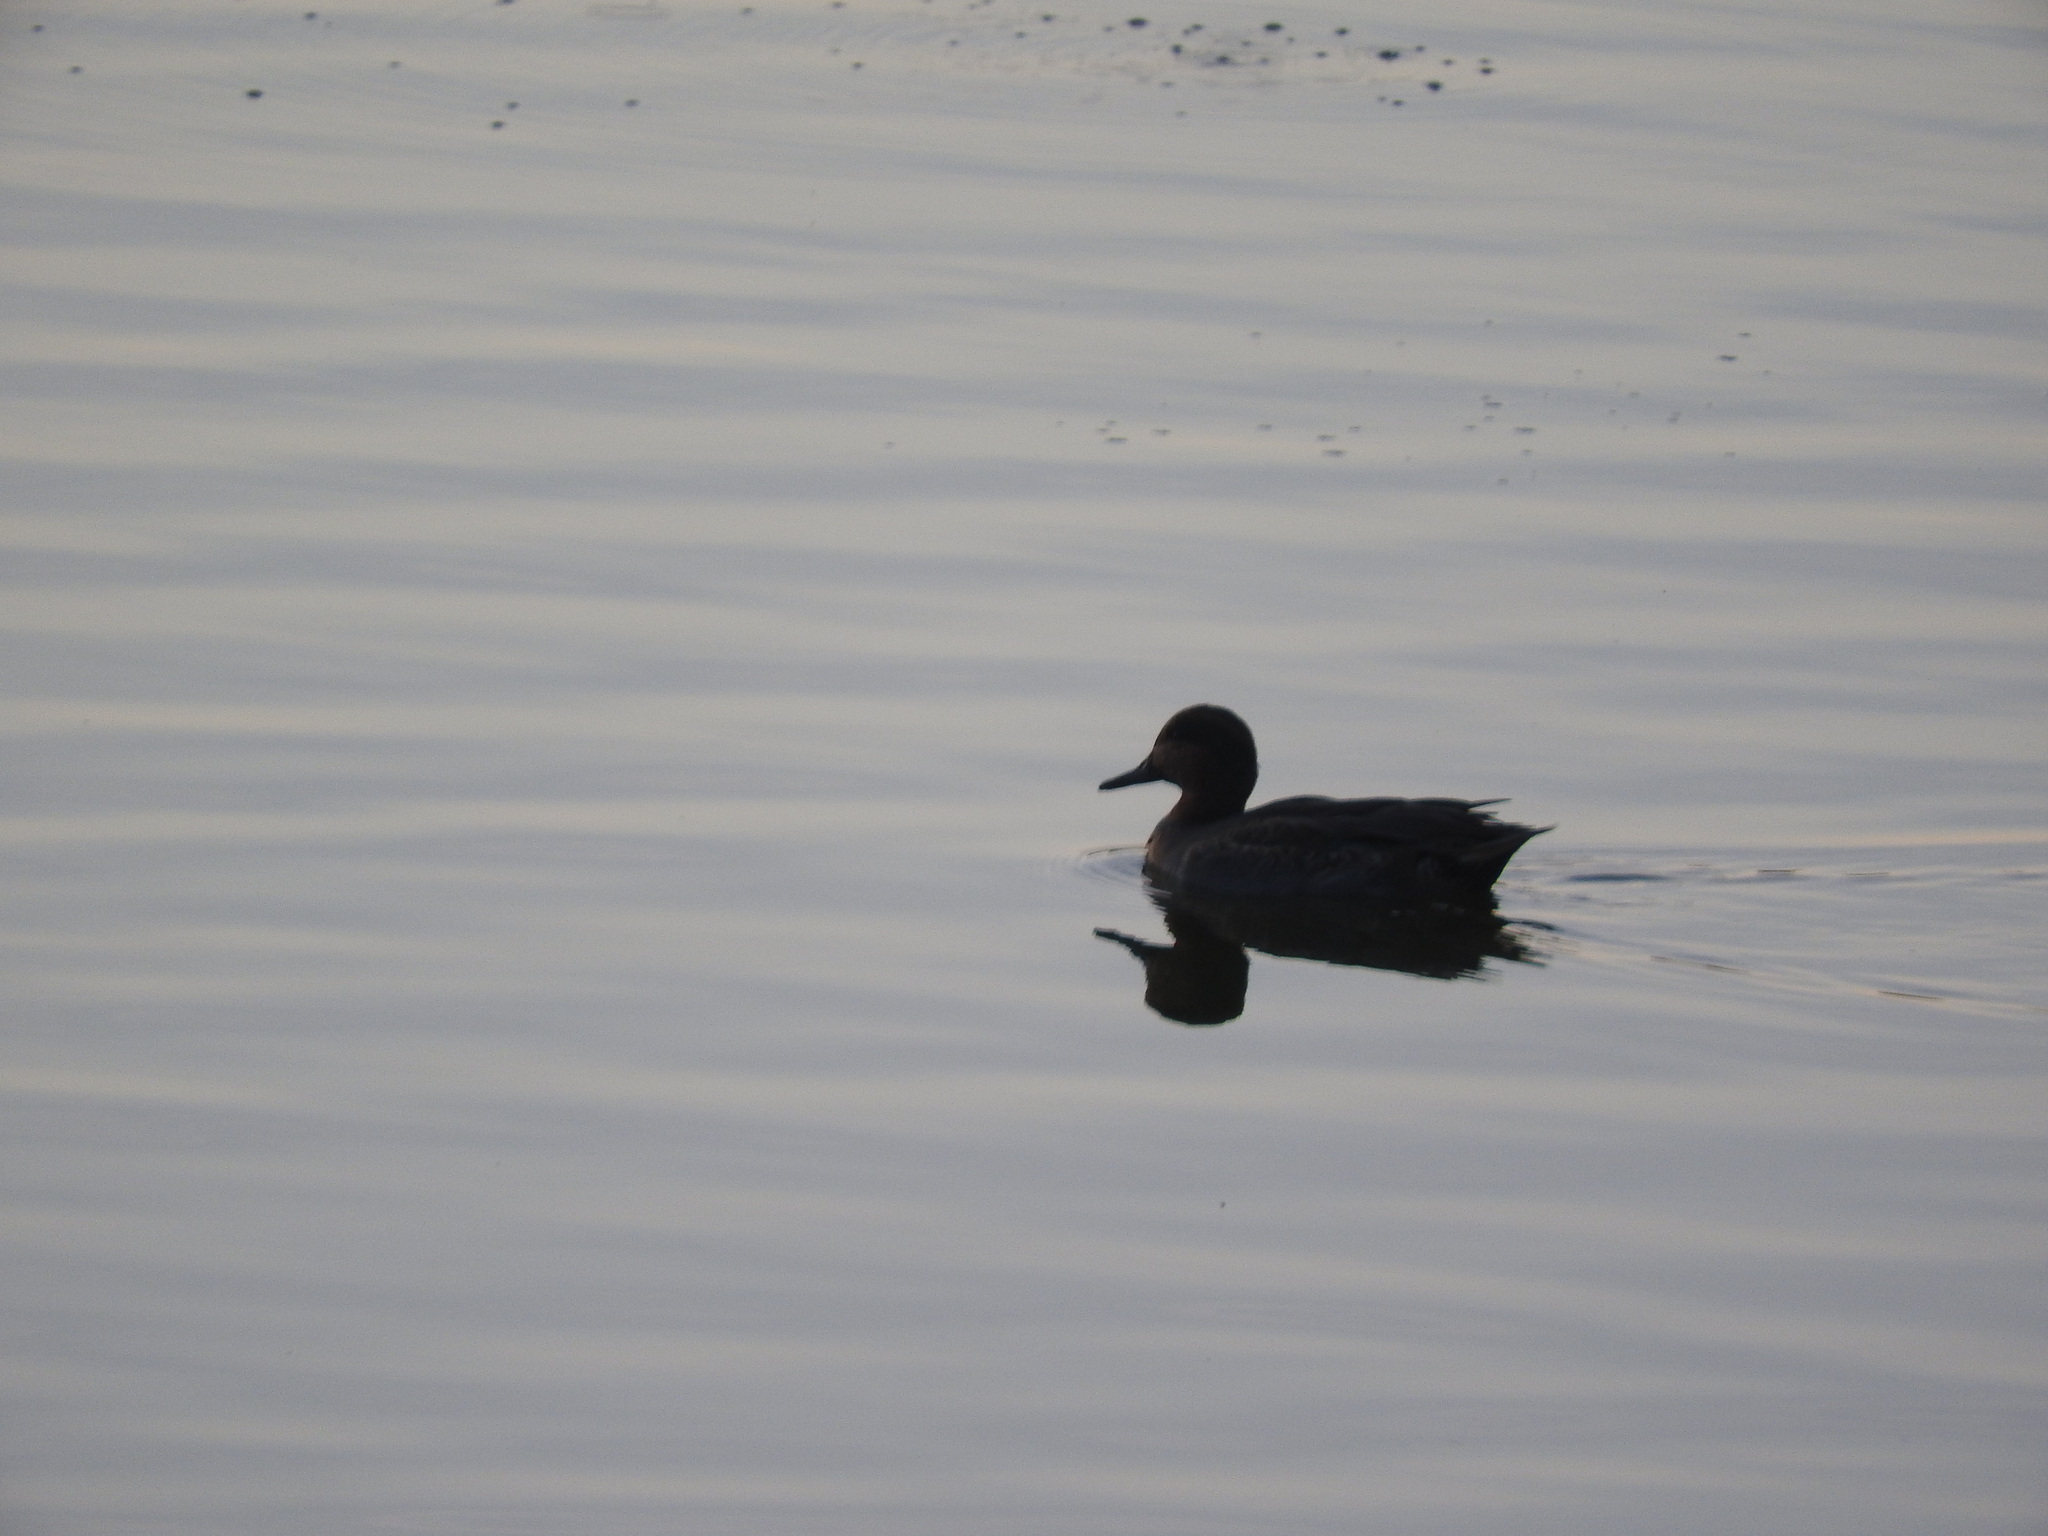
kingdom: Animalia
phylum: Chordata
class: Aves
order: Anseriformes
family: Anatidae
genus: Anas
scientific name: Anas crecca
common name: Eurasian teal
